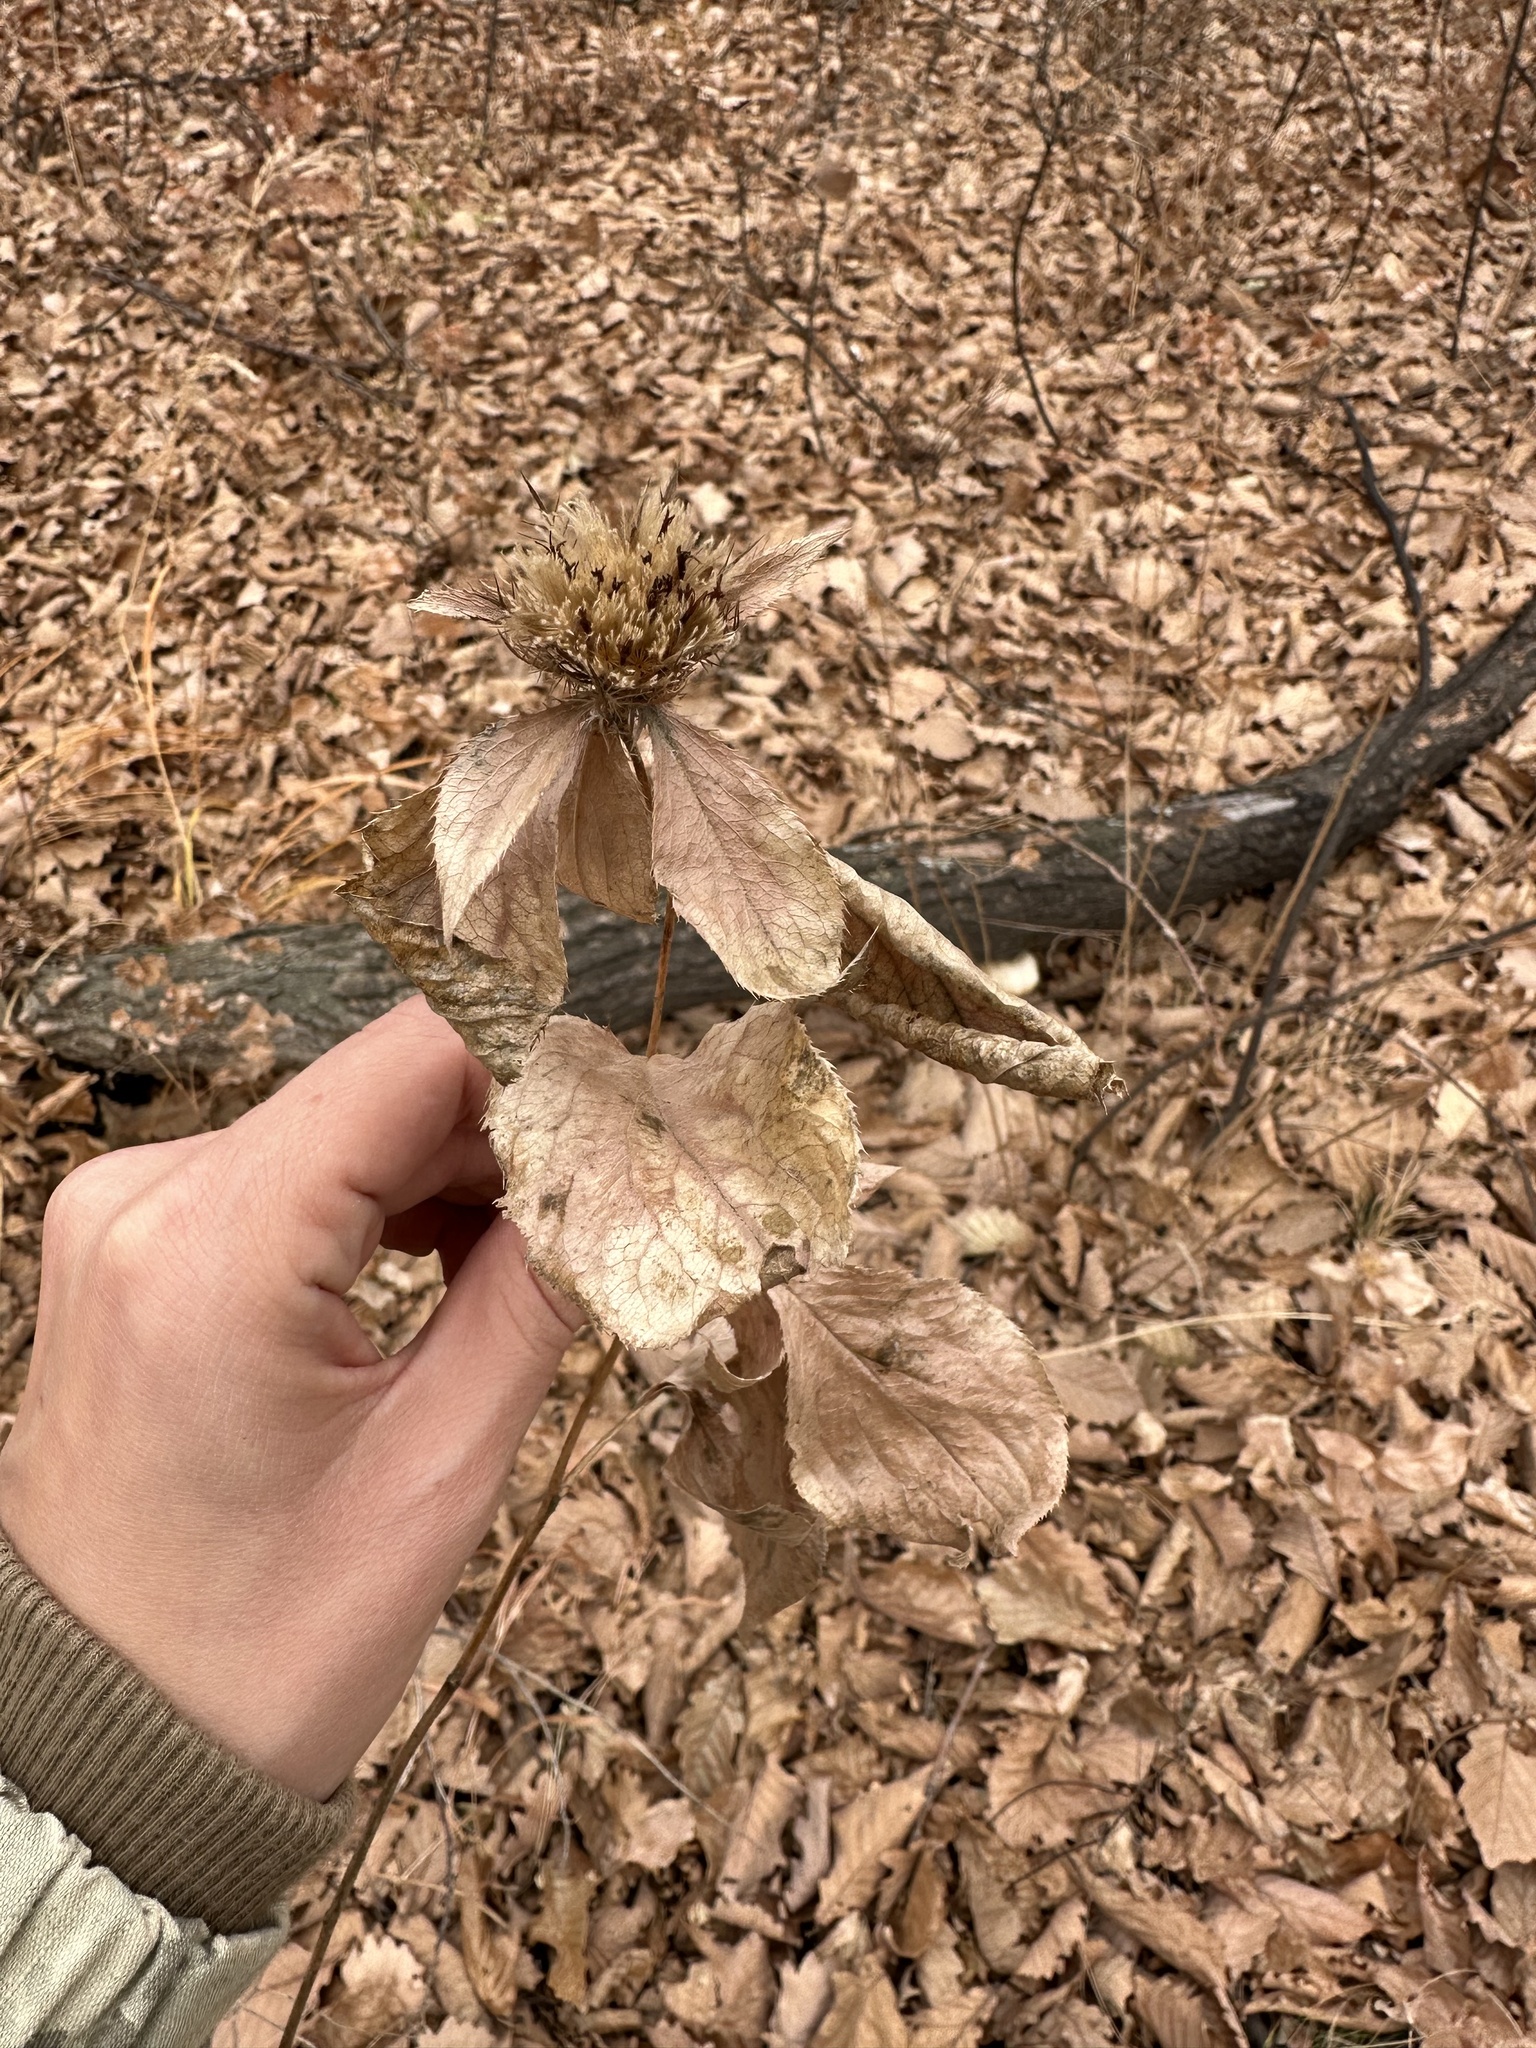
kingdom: Plantae
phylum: Tracheophyta
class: Magnoliopsida
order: Asterales
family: Asteraceae
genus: Atractylodes
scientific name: Atractylodes lancea
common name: Southern tsangshu
